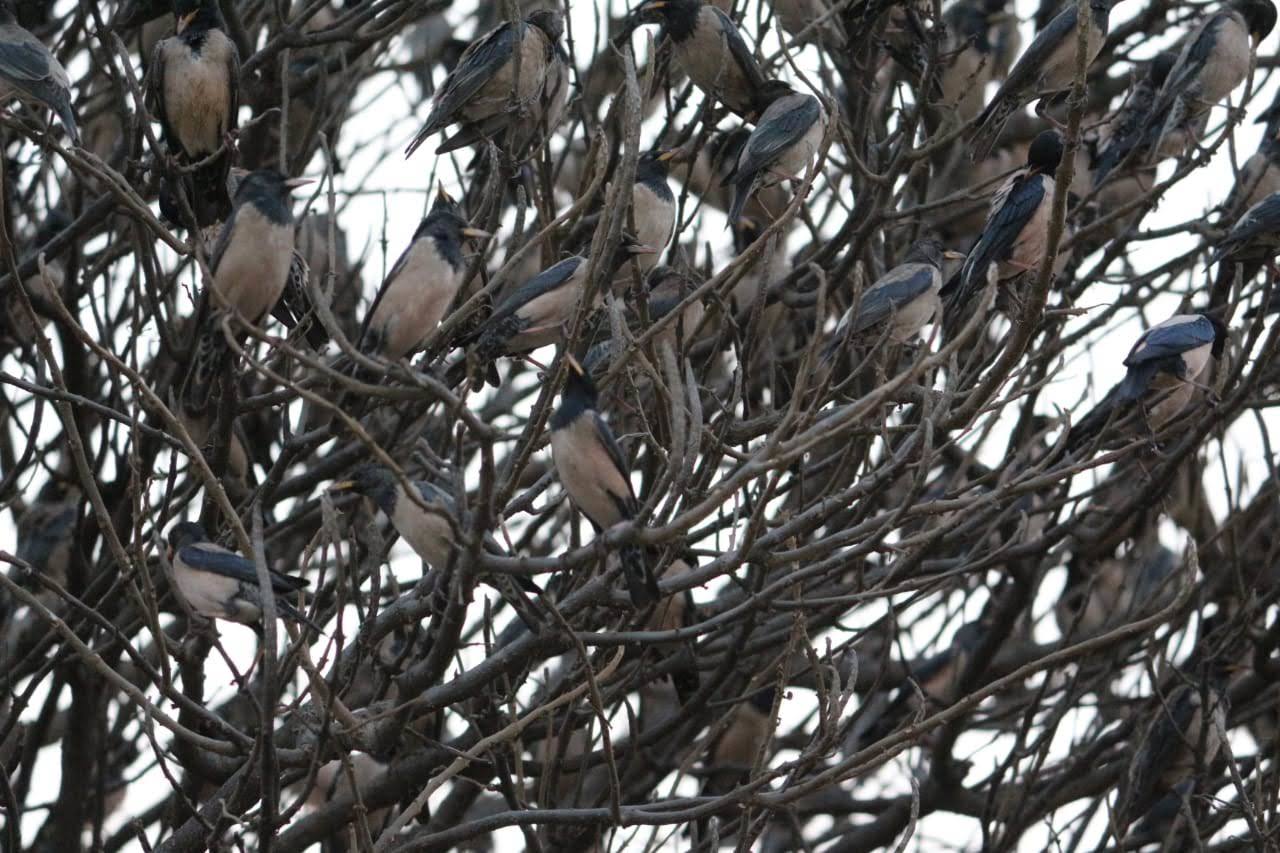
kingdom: Animalia
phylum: Chordata
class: Aves
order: Passeriformes
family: Sturnidae
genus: Pastor
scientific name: Pastor roseus
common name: Rosy starling
